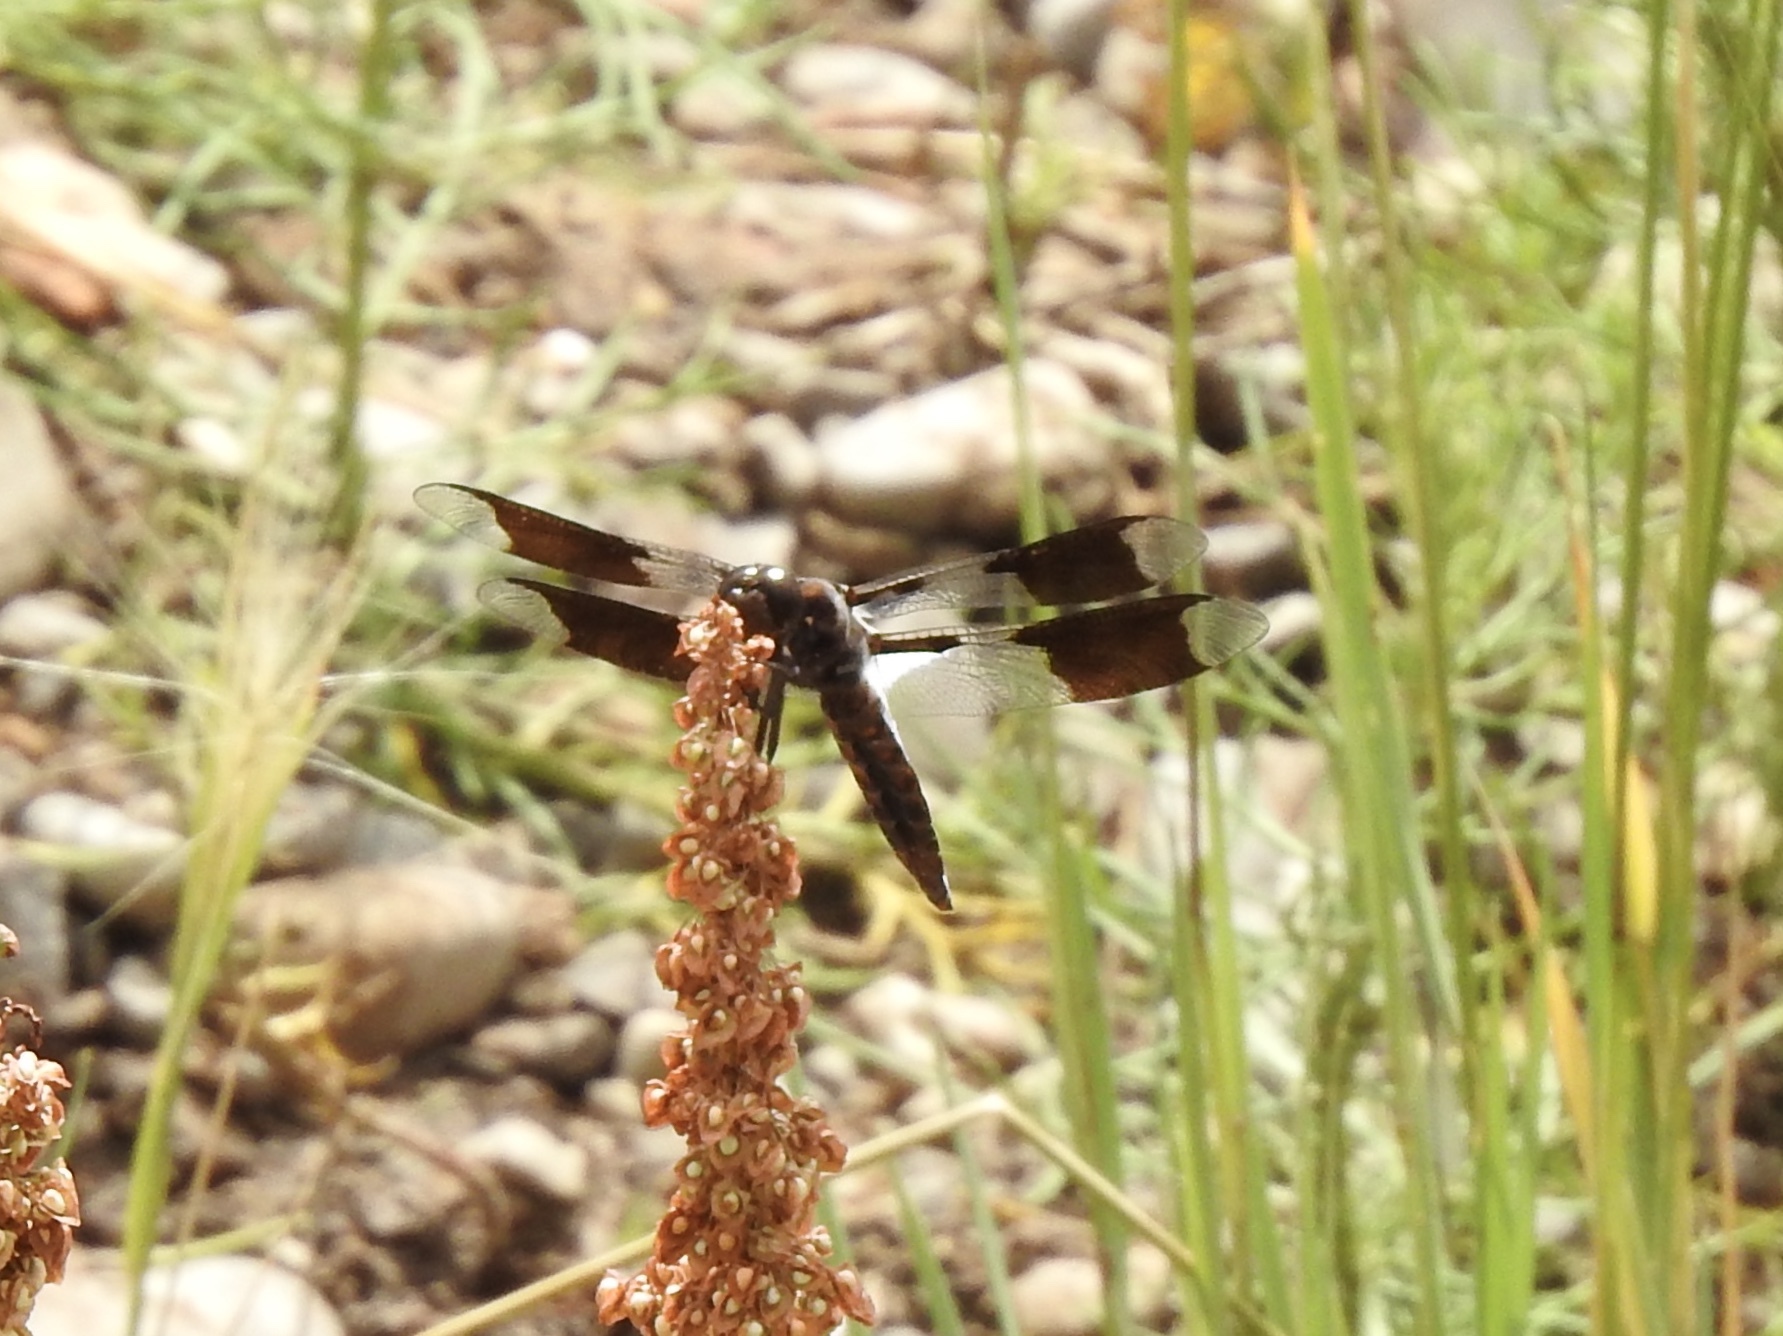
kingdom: Animalia
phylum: Arthropoda
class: Insecta
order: Odonata
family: Libellulidae
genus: Plathemis
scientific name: Plathemis lydia
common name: Common whitetail
